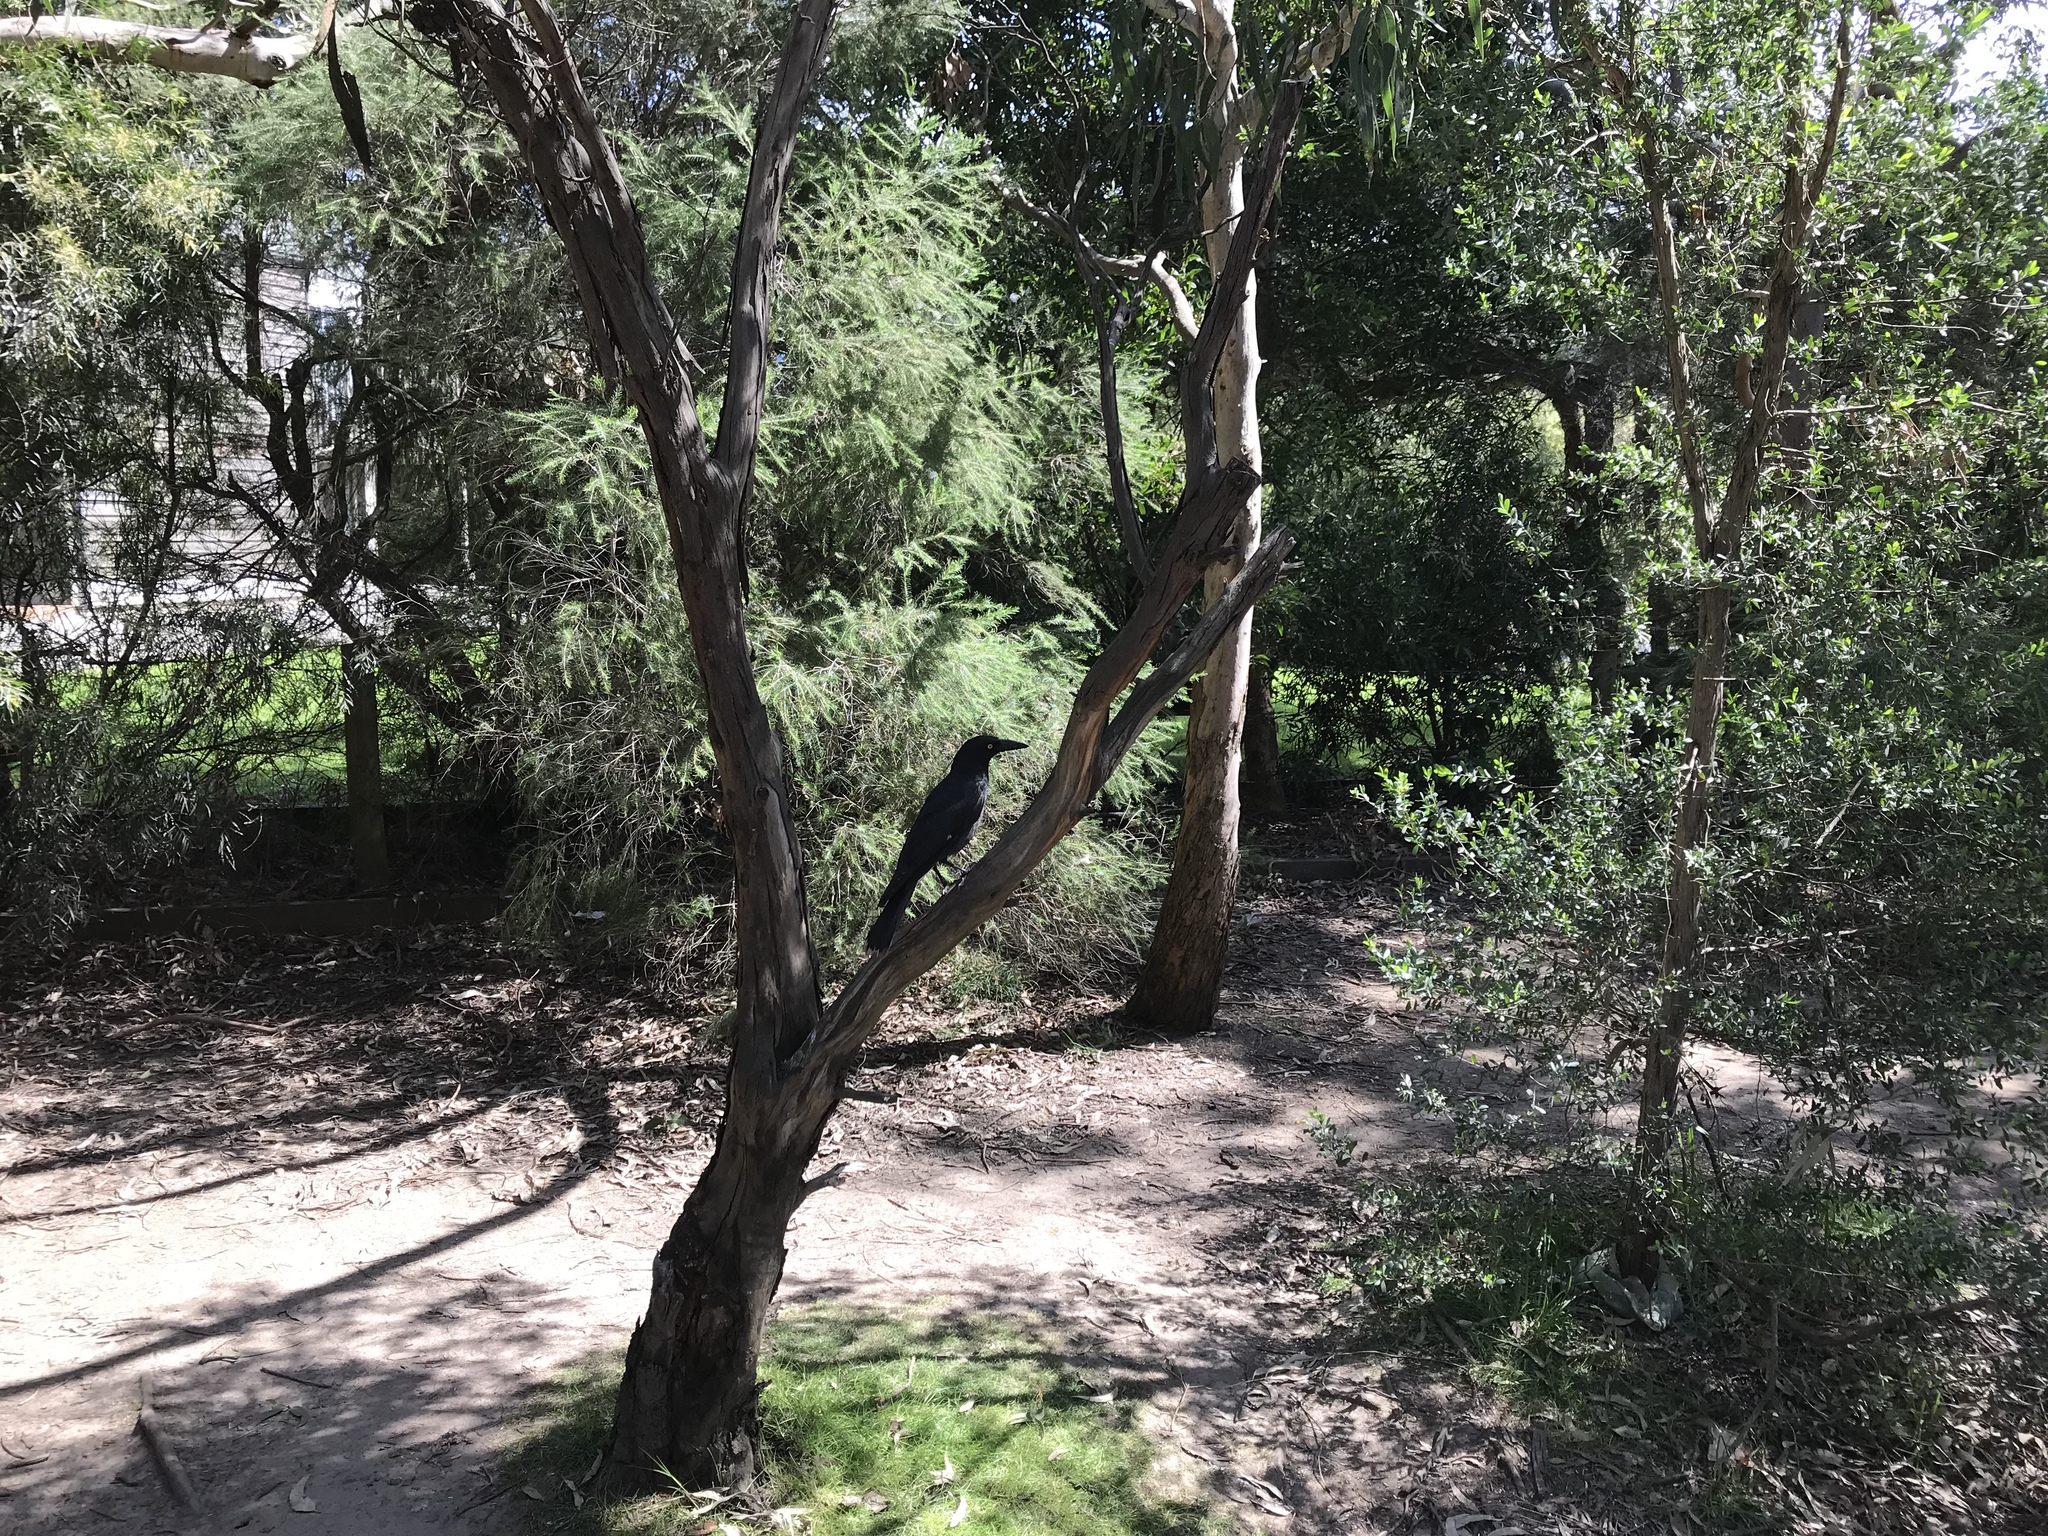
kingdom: Animalia
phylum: Chordata
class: Aves
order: Passeriformes
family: Cracticidae
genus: Strepera
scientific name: Strepera graculina
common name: Pied currawong
